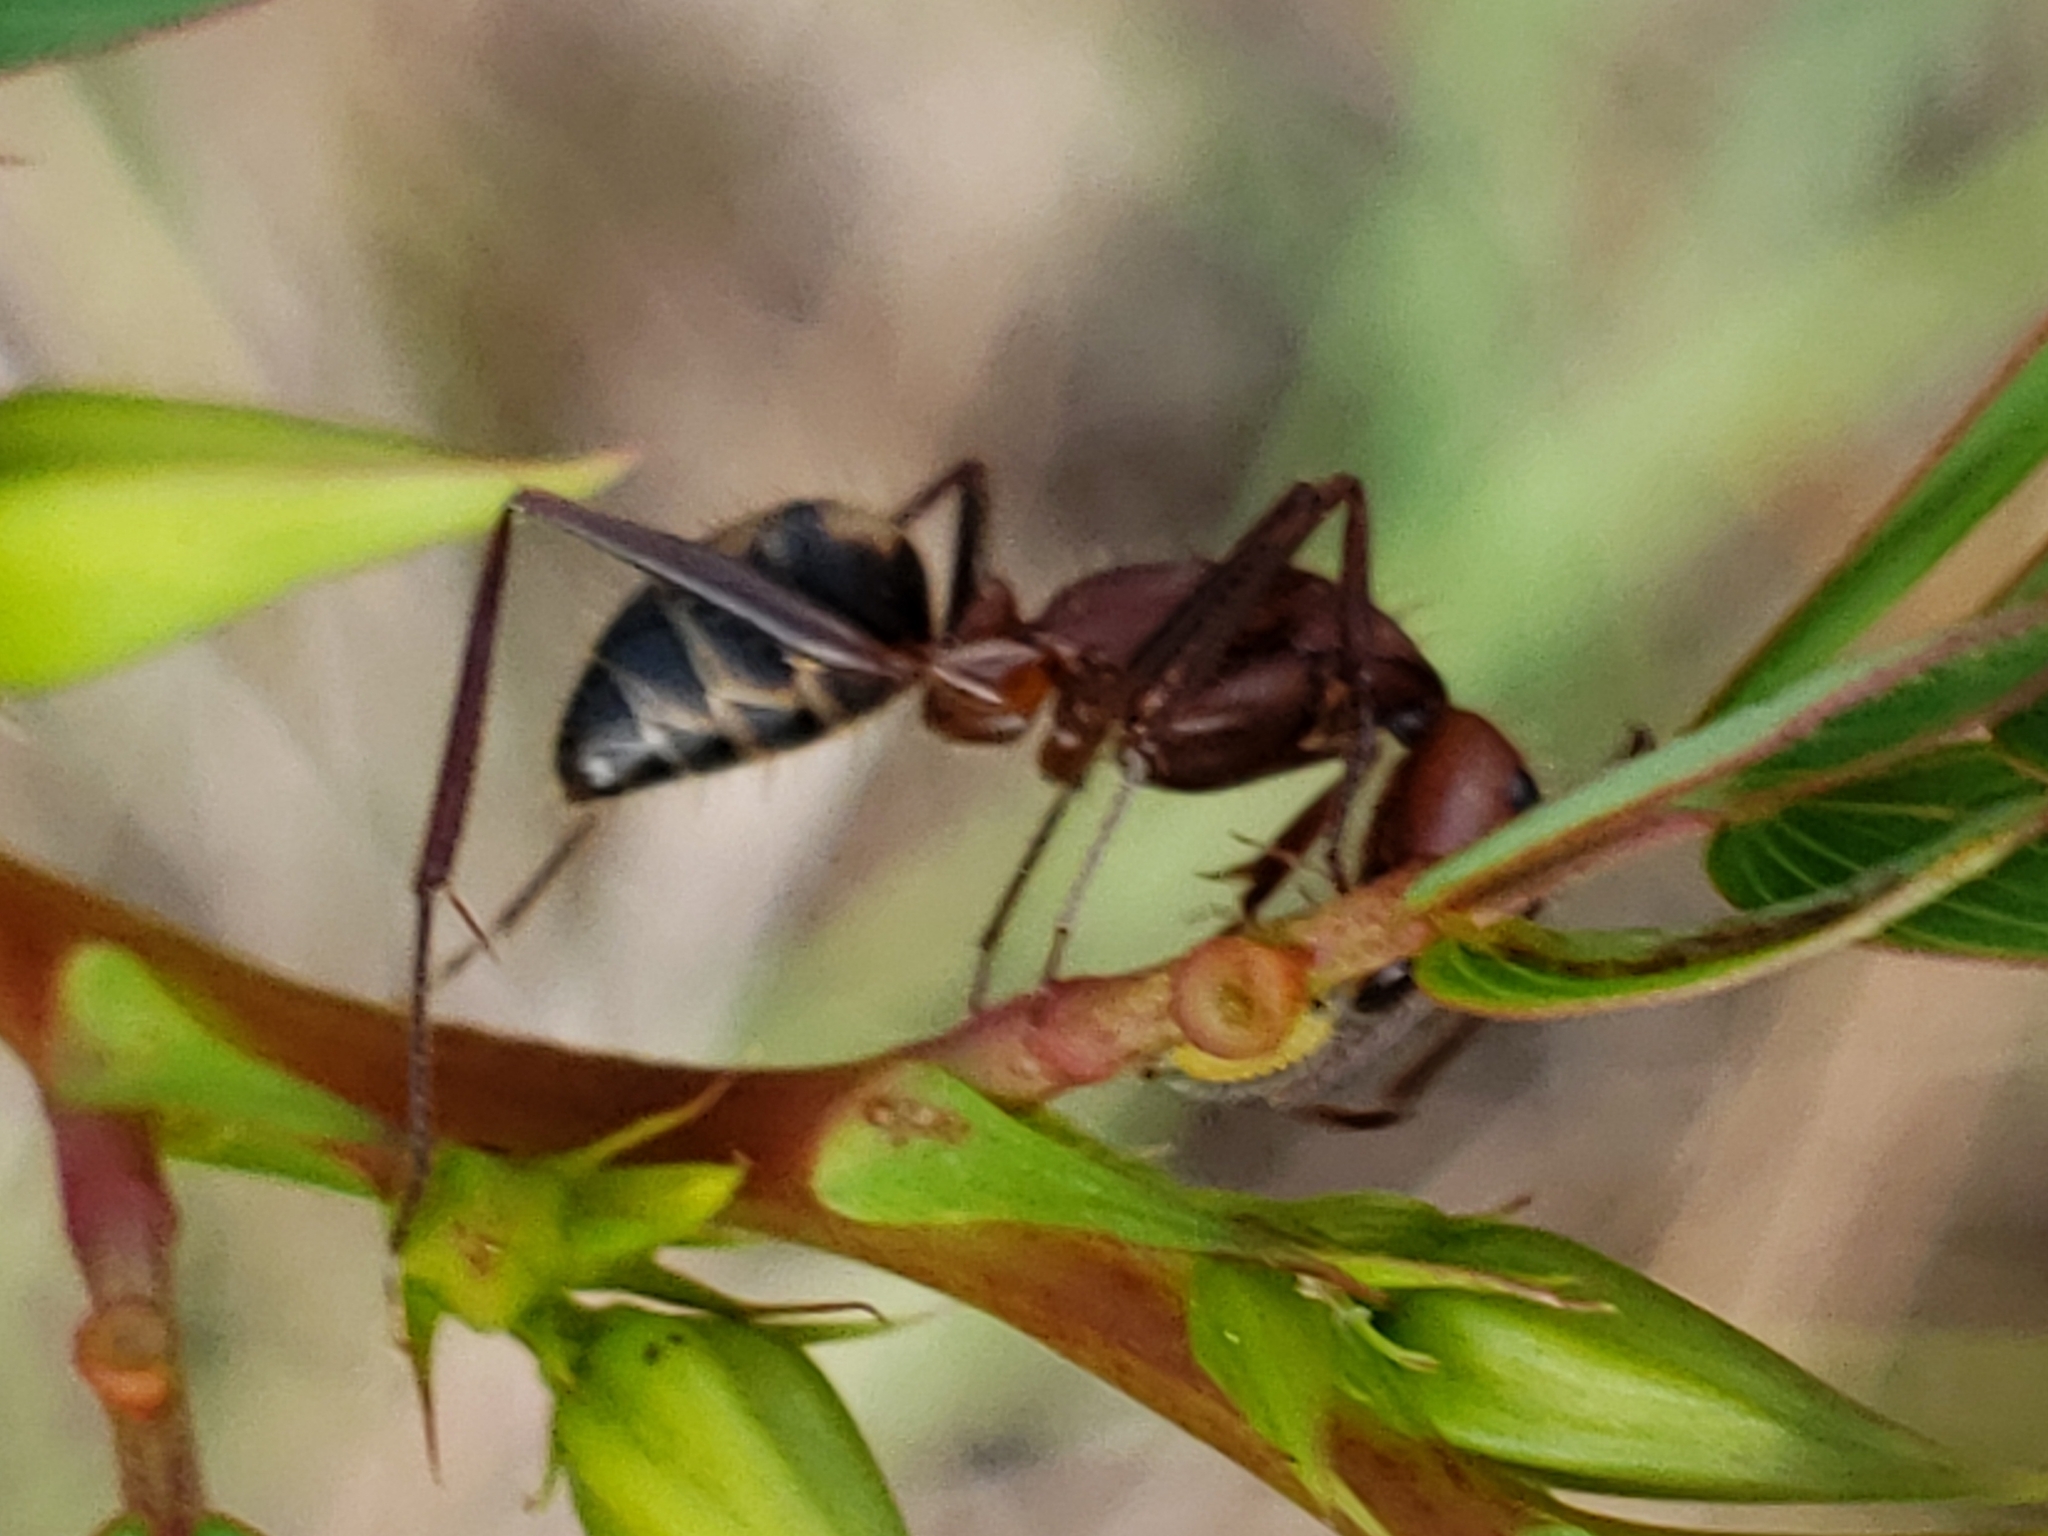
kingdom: Animalia
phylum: Arthropoda
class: Insecta
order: Hymenoptera
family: Formicidae
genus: Camponotus
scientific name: Camponotus socius
